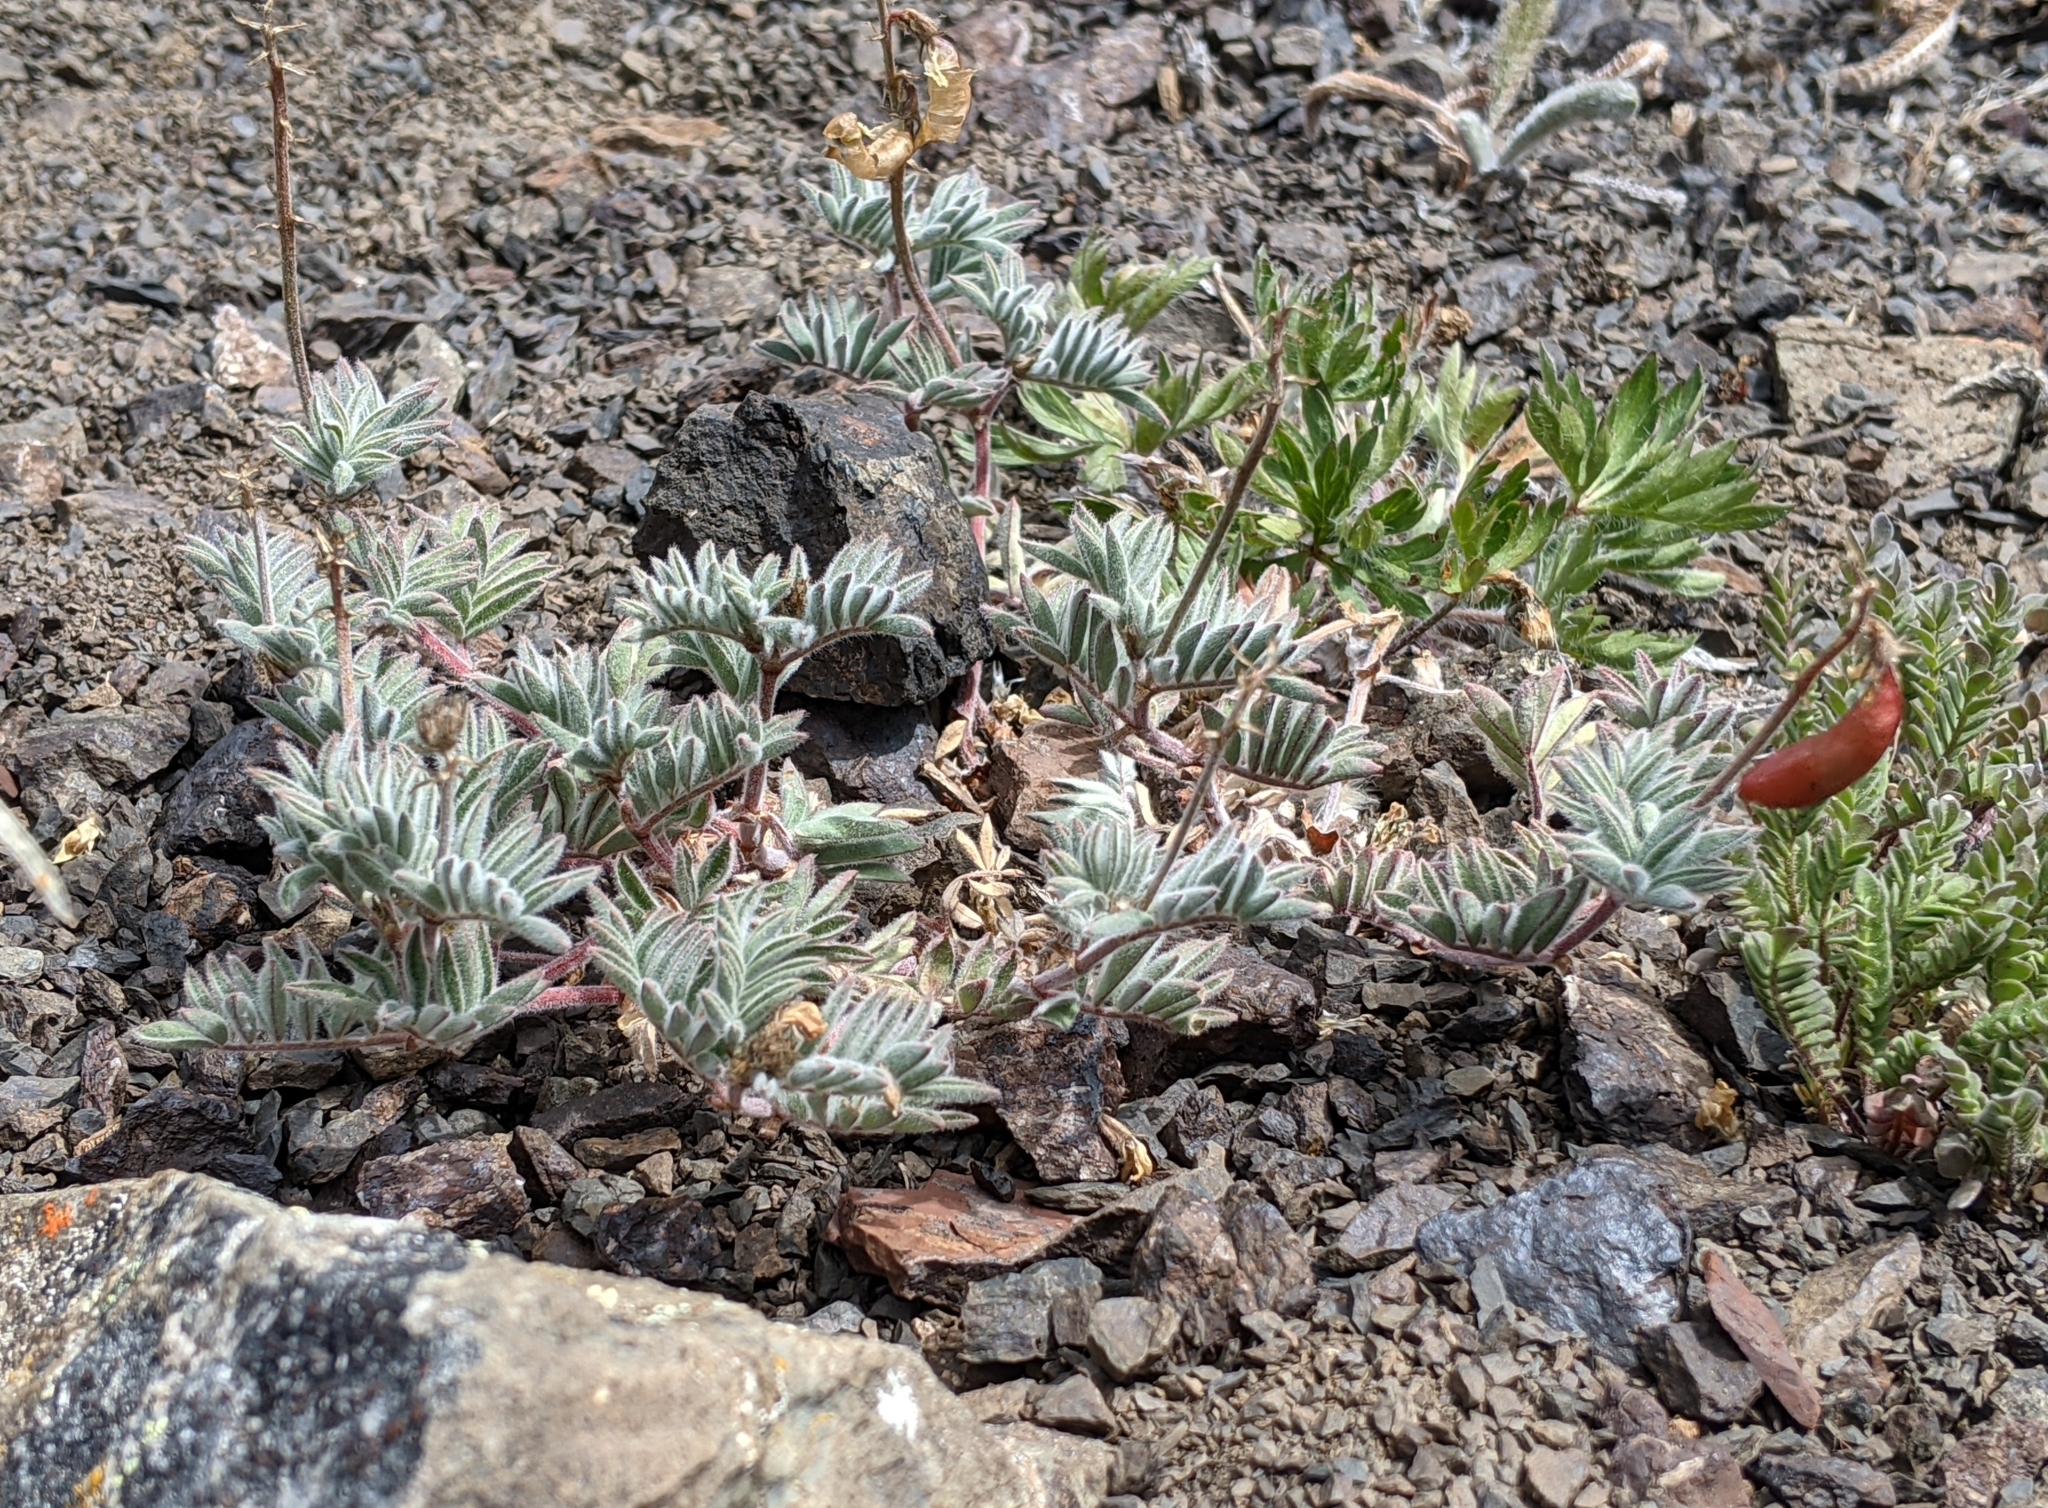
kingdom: Plantae
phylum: Tracheophyta
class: Magnoliopsida
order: Fabales
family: Fabaceae
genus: Astragalus
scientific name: Astragalus cottonii
